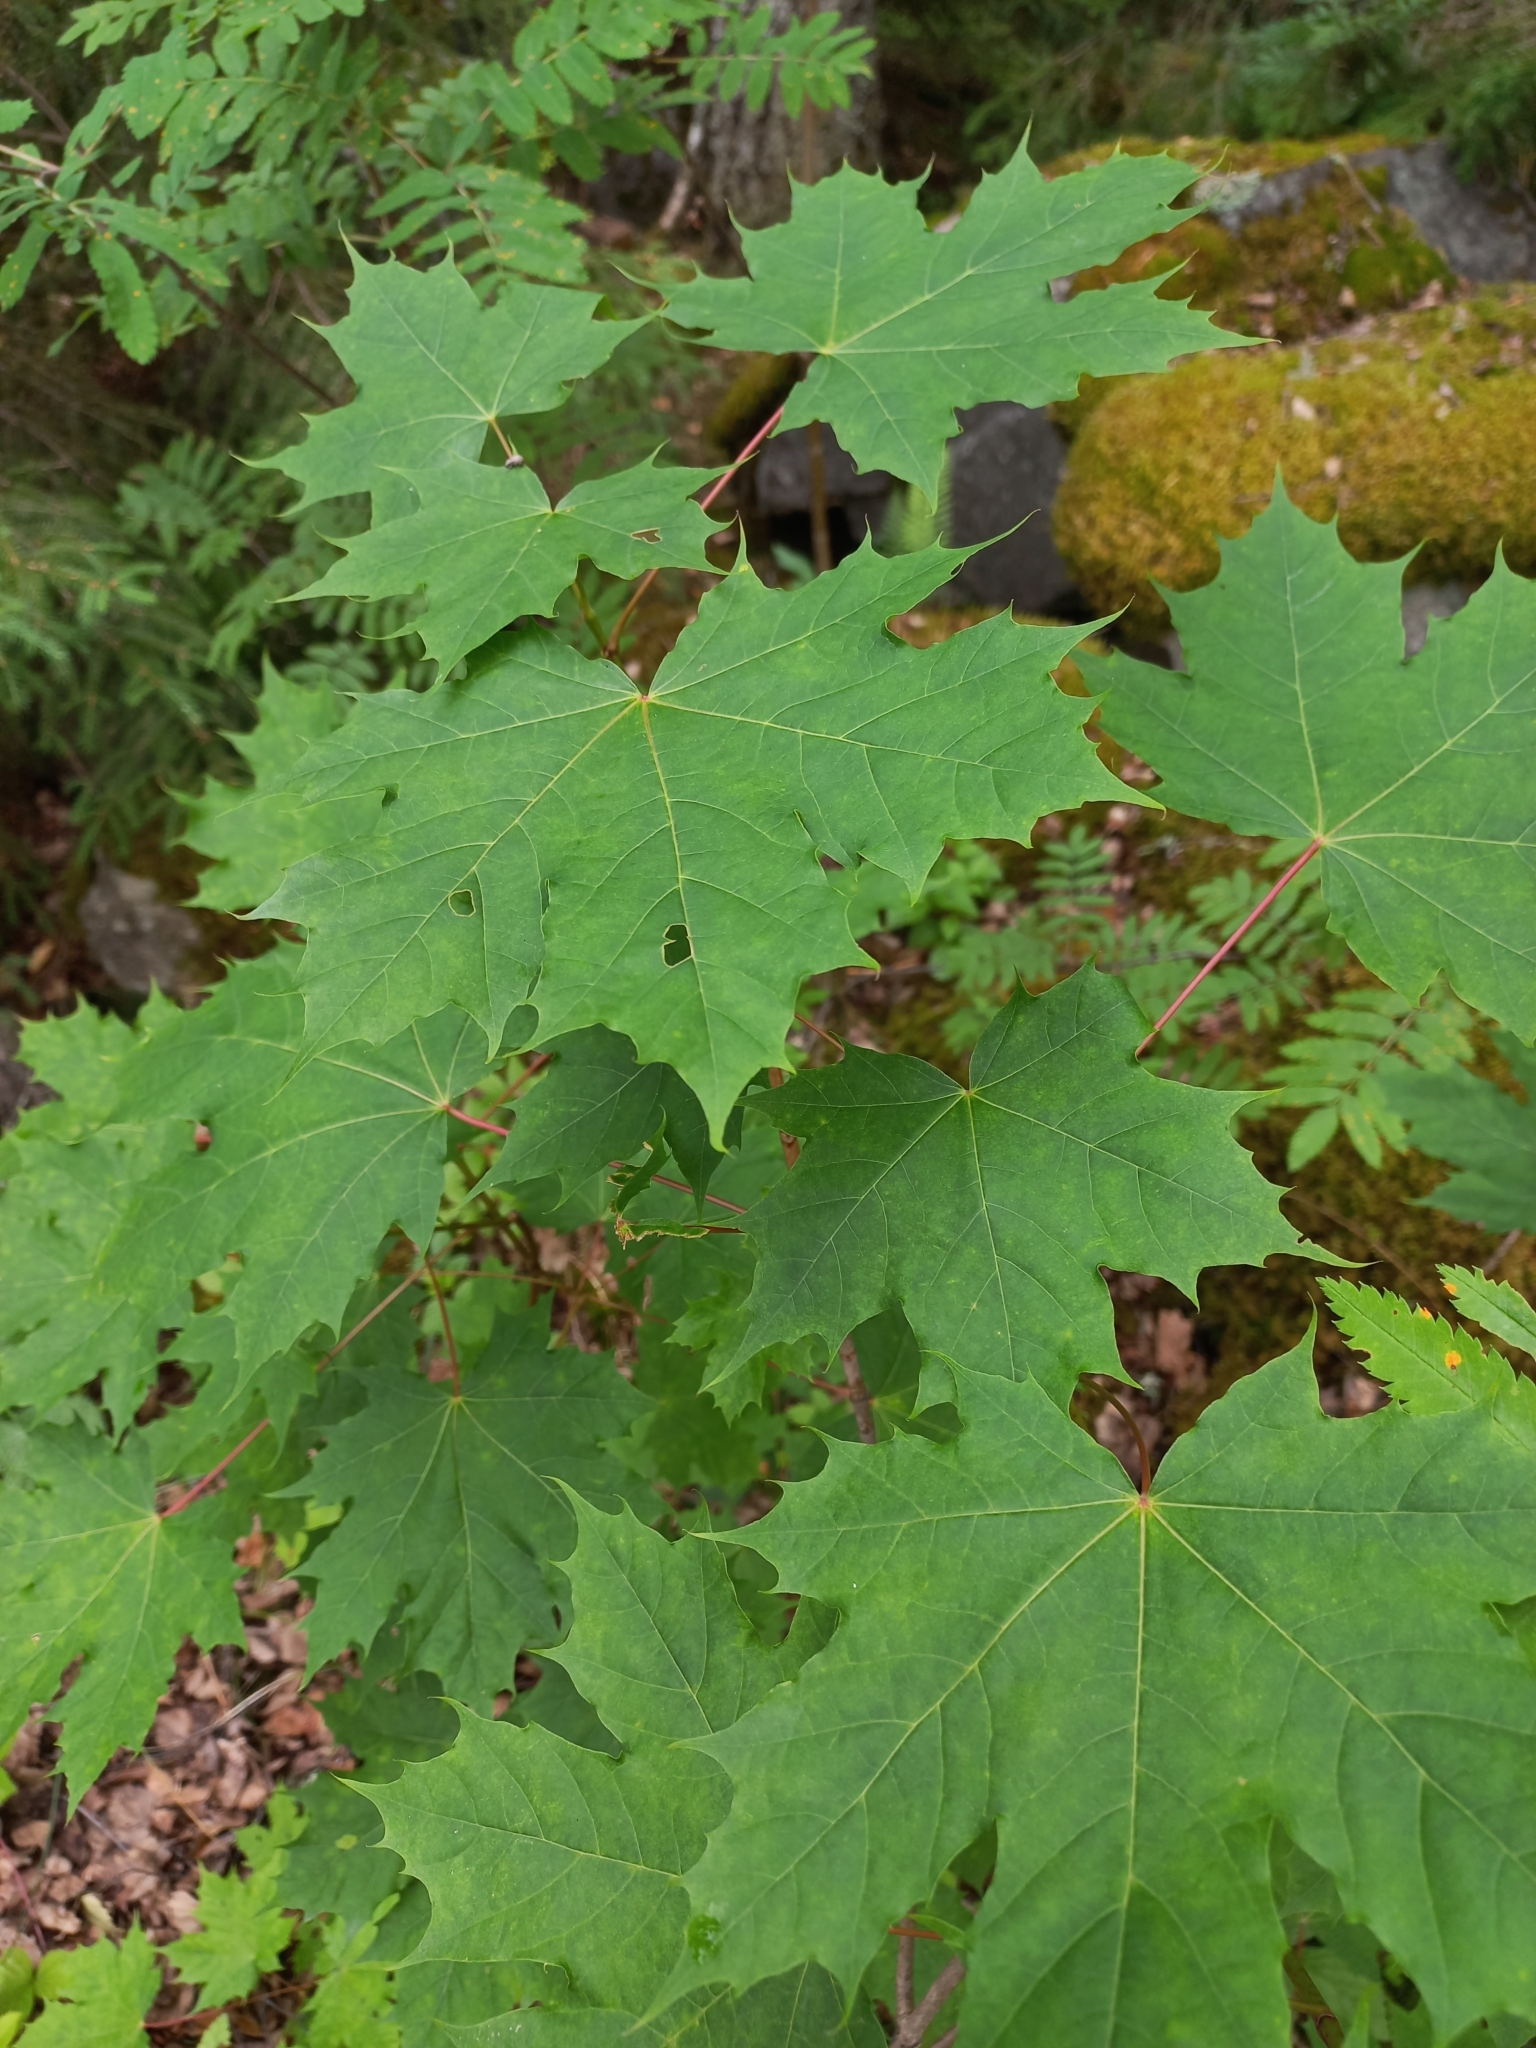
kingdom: Plantae
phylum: Tracheophyta
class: Magnoliopsida
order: Sapindales
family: Sapindaceae
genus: Acer
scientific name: Acer platanoides
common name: Norway maple
